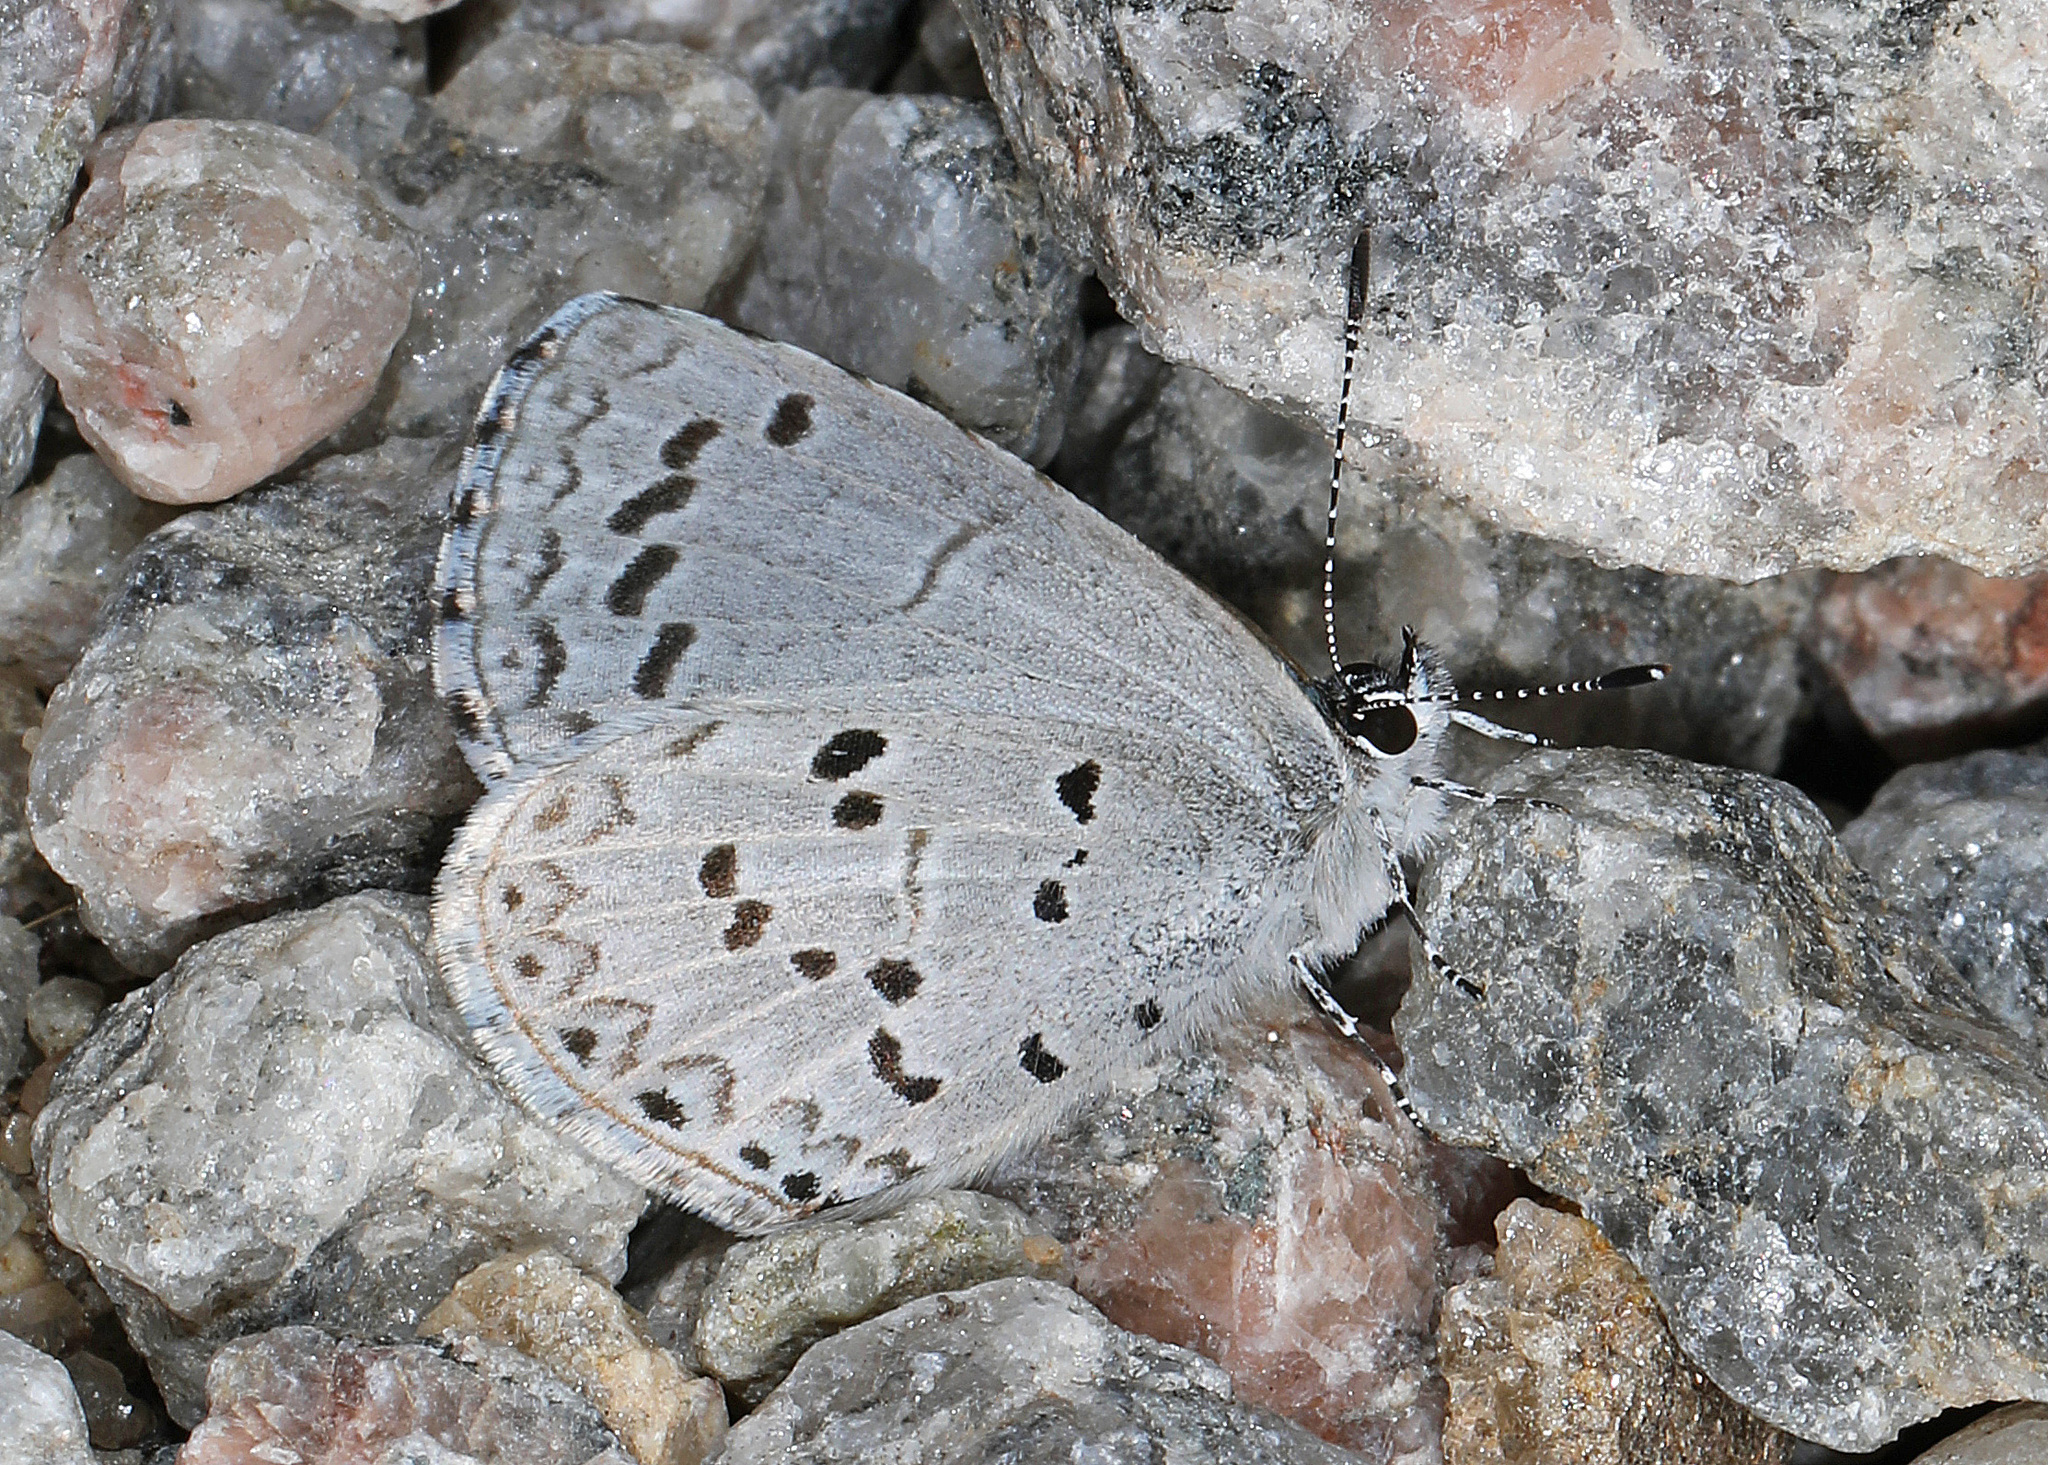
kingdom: Animalia
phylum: Arthropoda
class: Insecta
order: Lepidoptera
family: Lycaenidae
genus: Cyaniris
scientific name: Cyaniris neglecta
